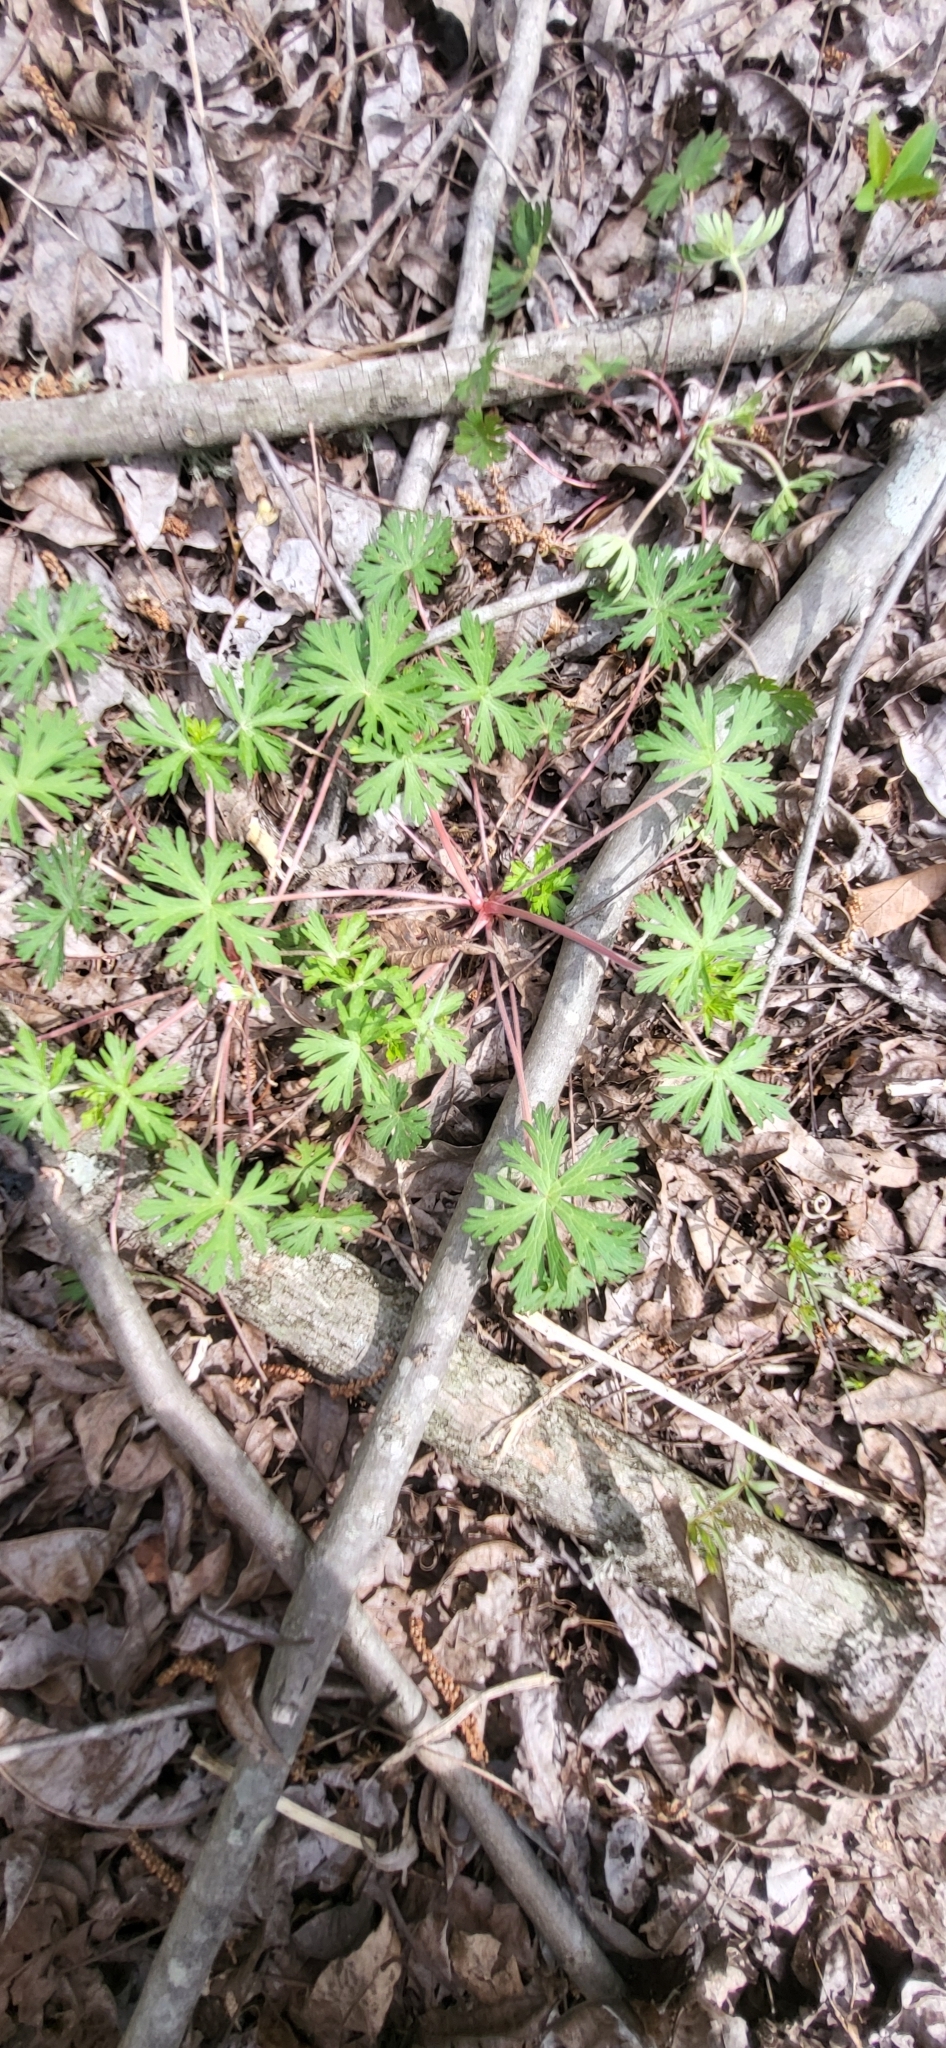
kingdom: Plantae
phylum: Tracheophyta
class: Magnoliopsida
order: Geraniales
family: Geraniaceae
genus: Geranium
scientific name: Geranium carolinianum
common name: Carolina crane's-bill
